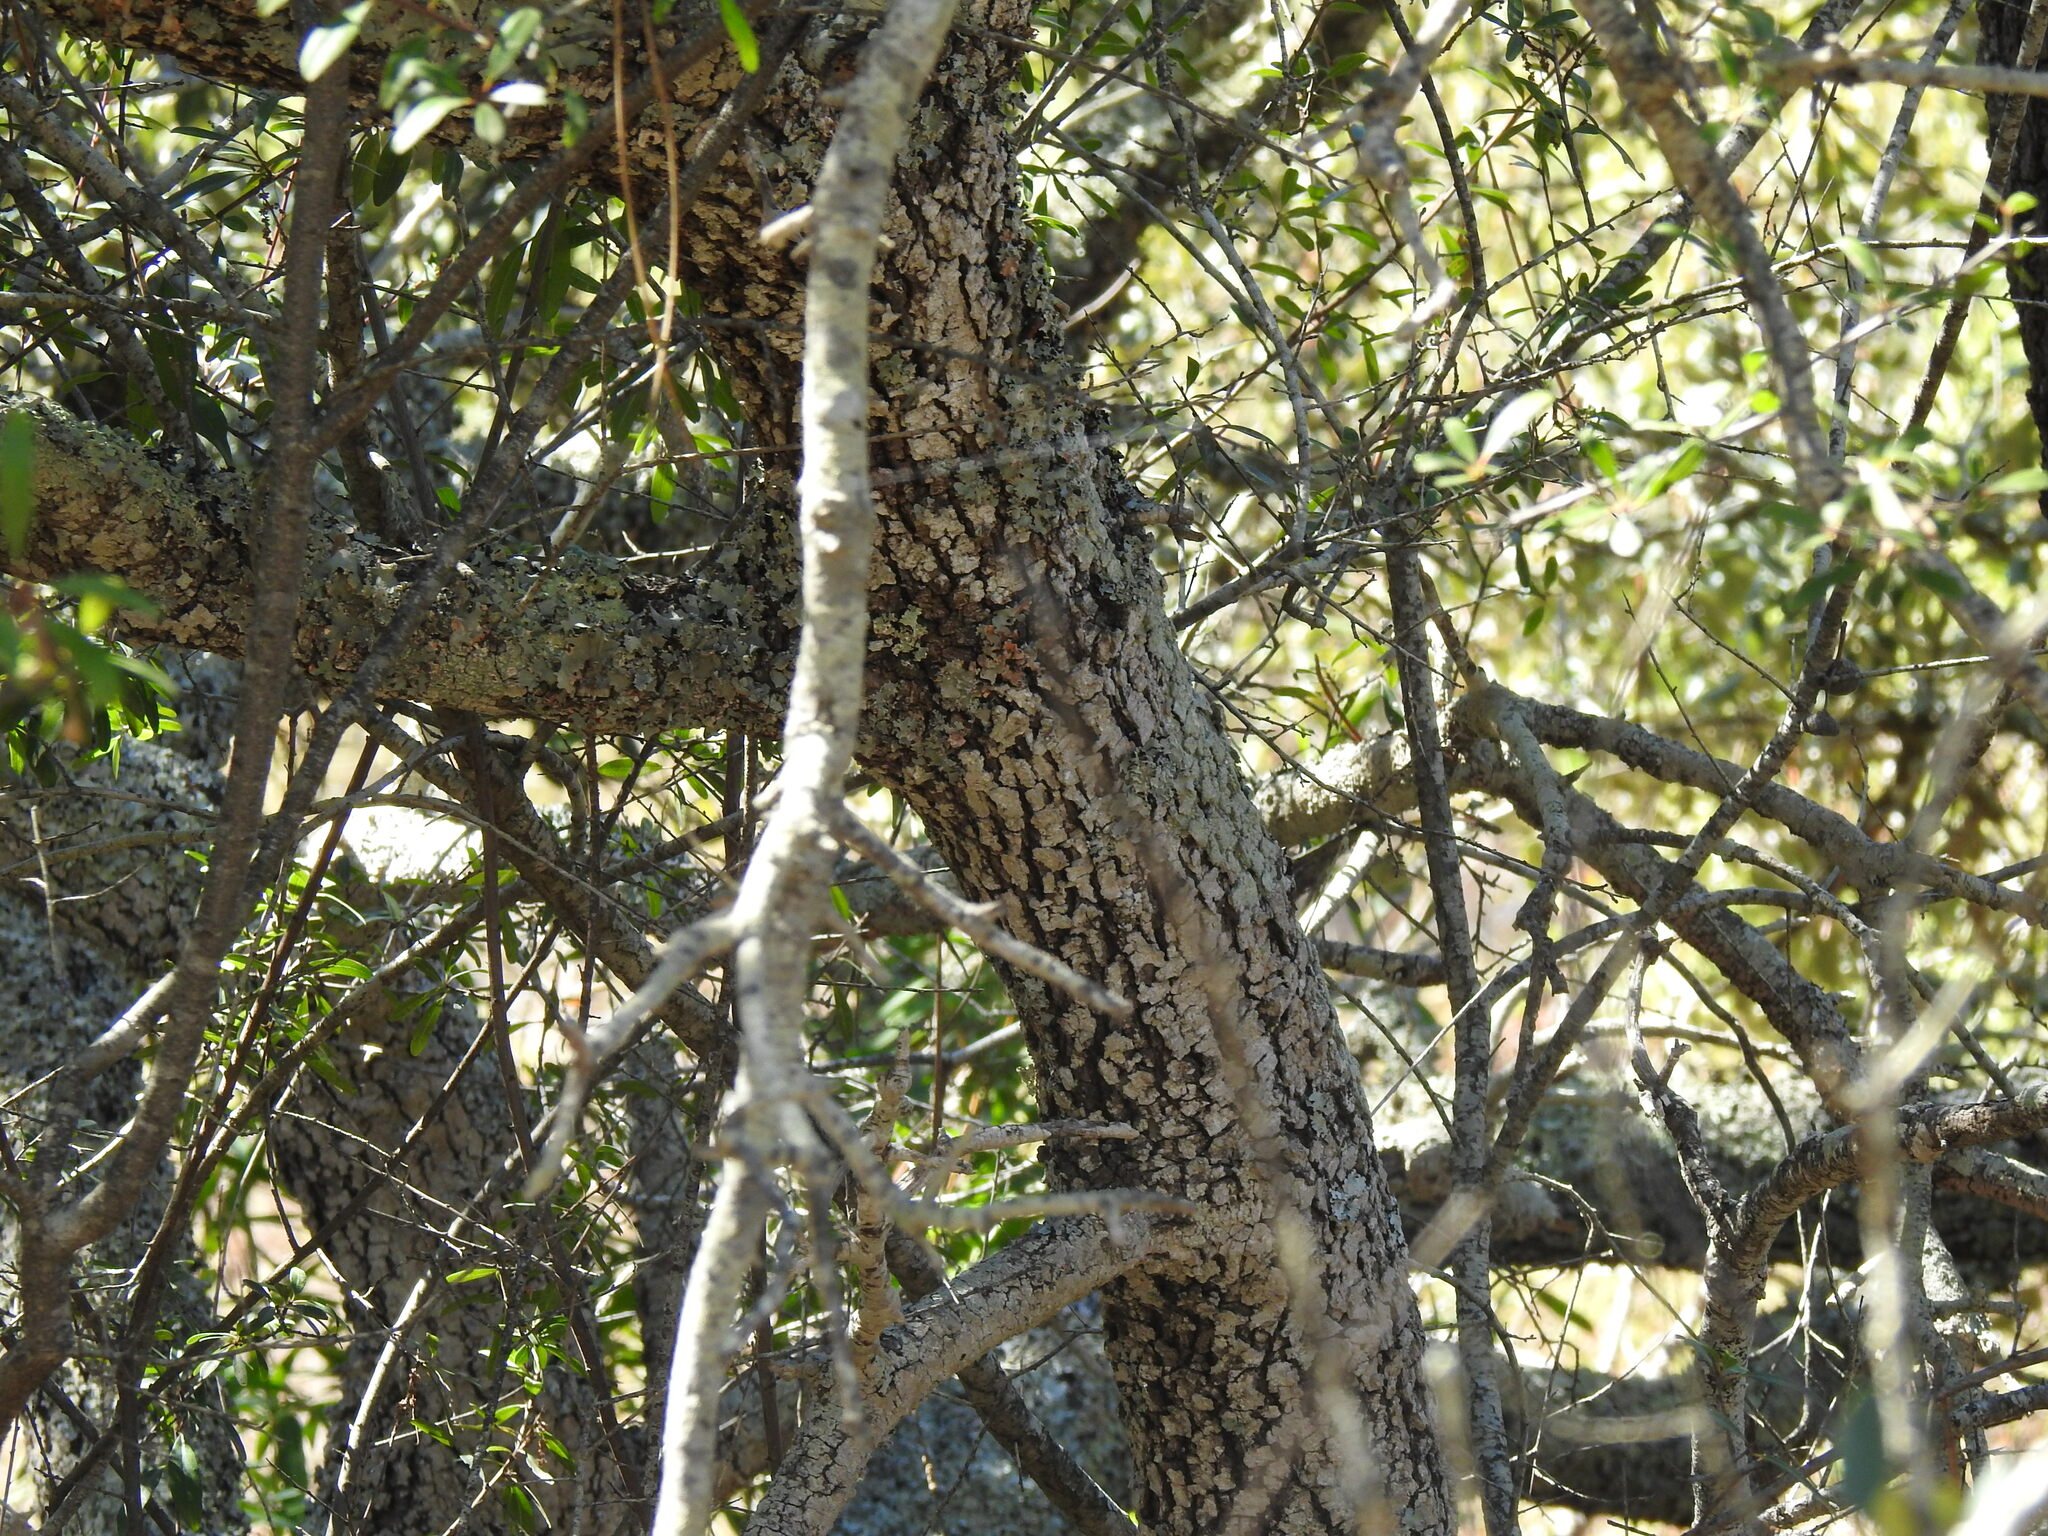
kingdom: Plantae
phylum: Tracheophyta
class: Magnoliopsida
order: Fagales
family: Fagaceae
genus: Quercus
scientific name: Quercus rotundifolia
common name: Holm oak
